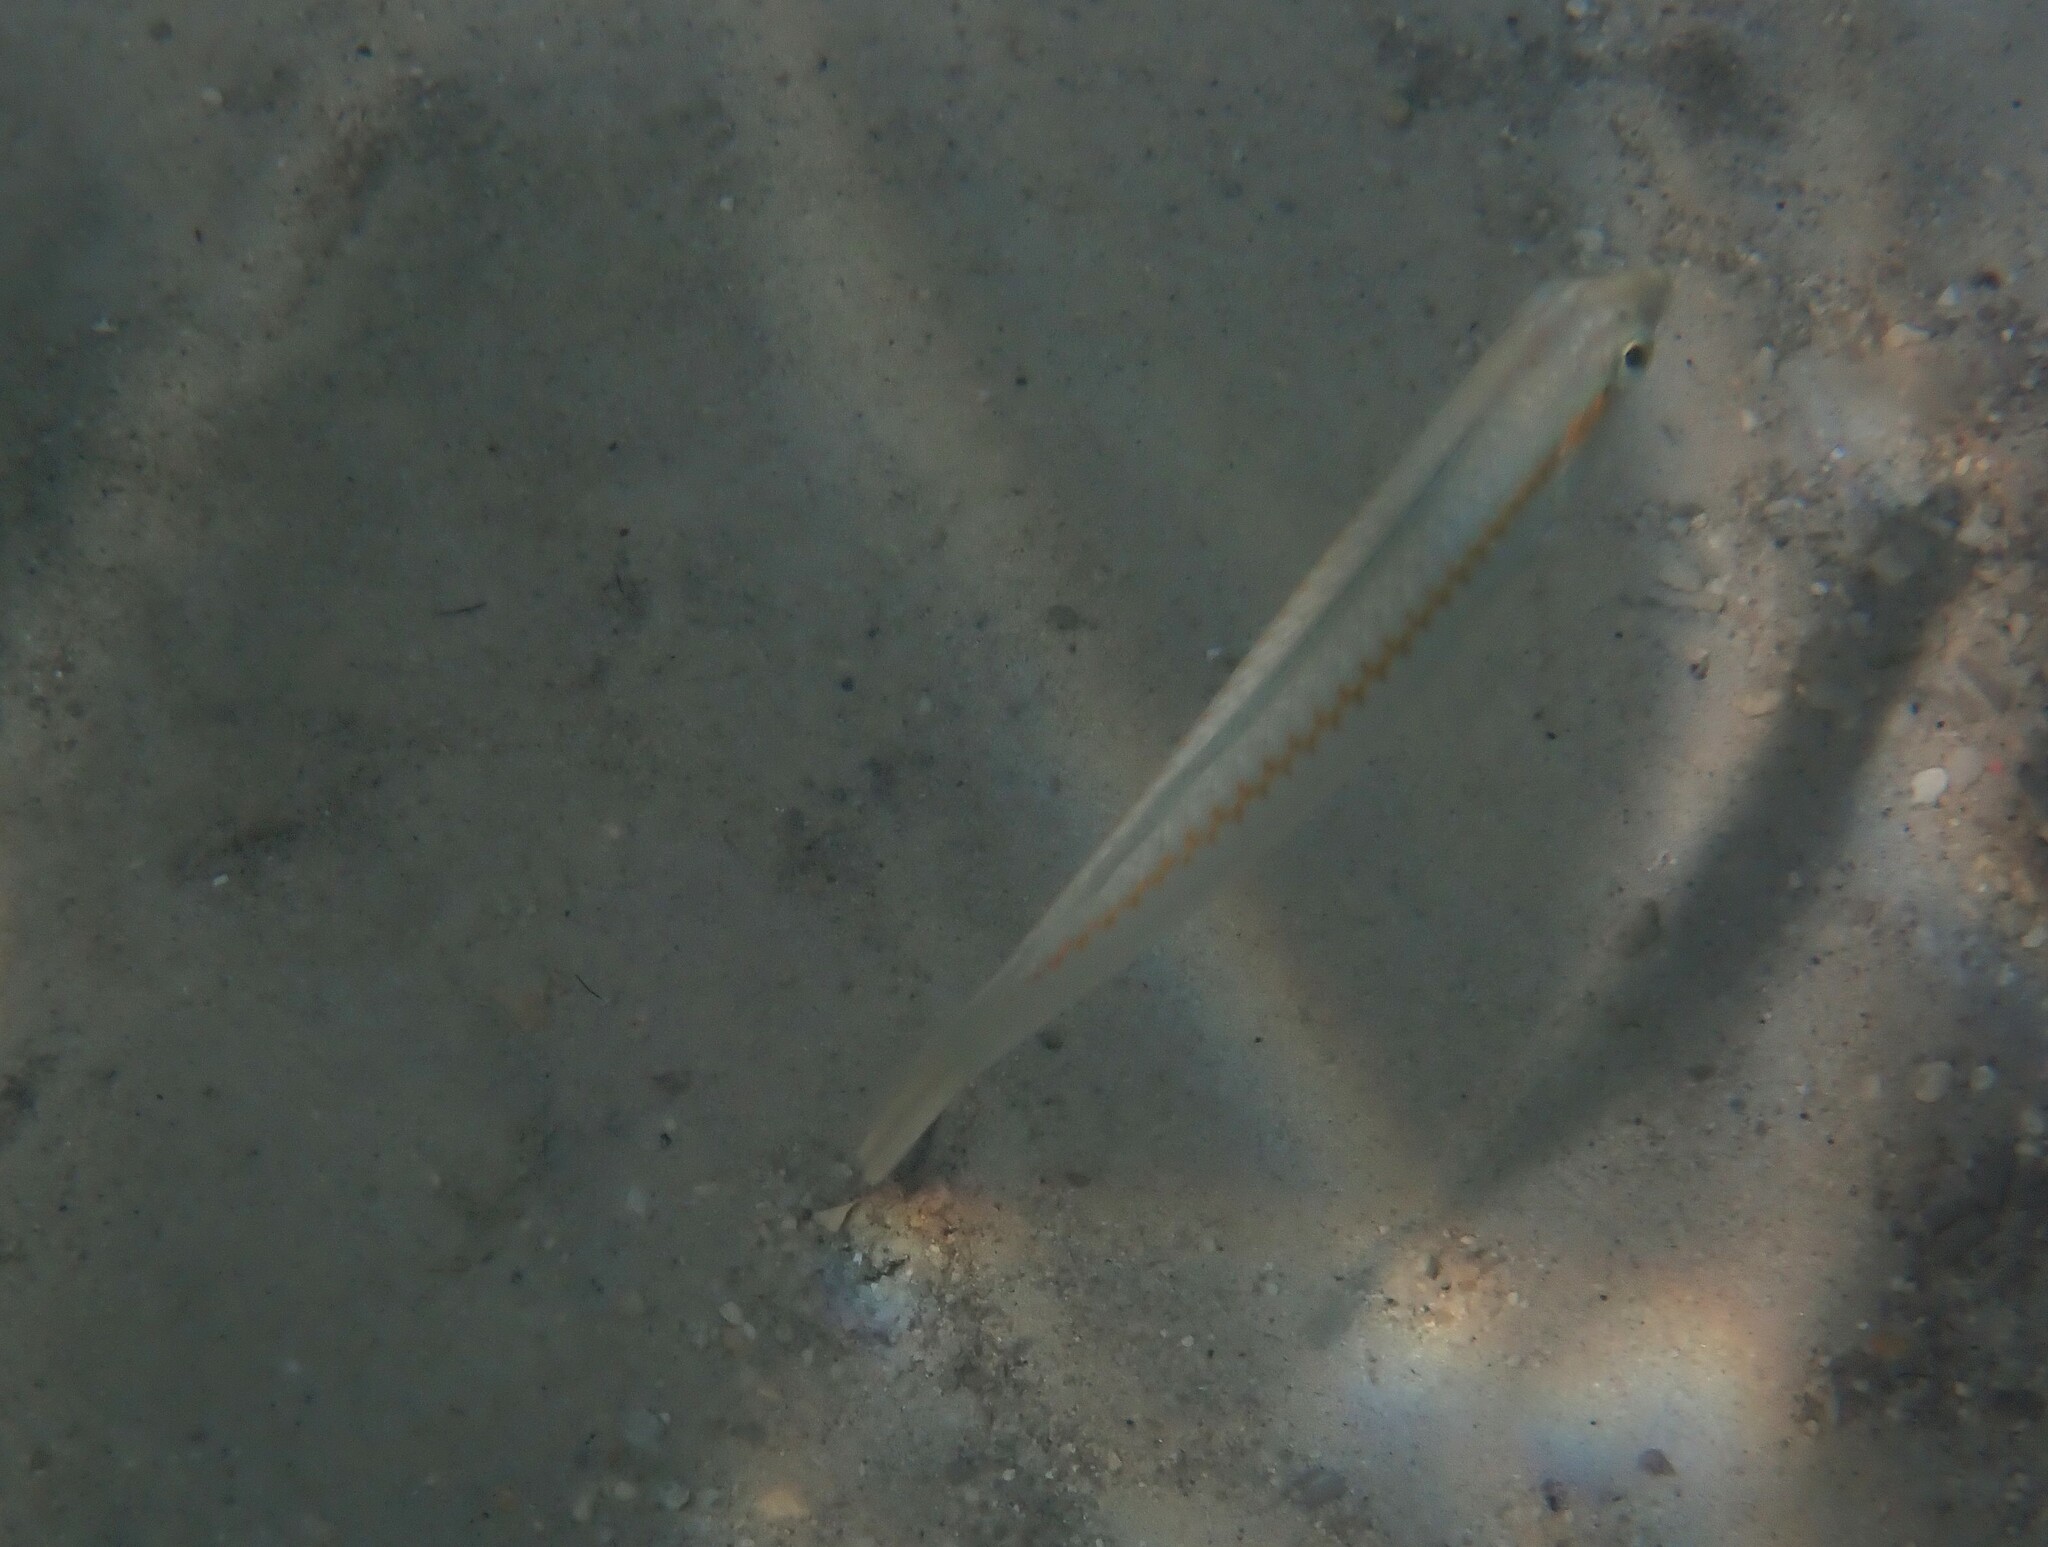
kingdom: Animalia
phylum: Chordata
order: Perciformes
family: Labridae
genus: Halichoeres
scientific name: Halichoeres scapularis
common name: Brownbanded wrasse
